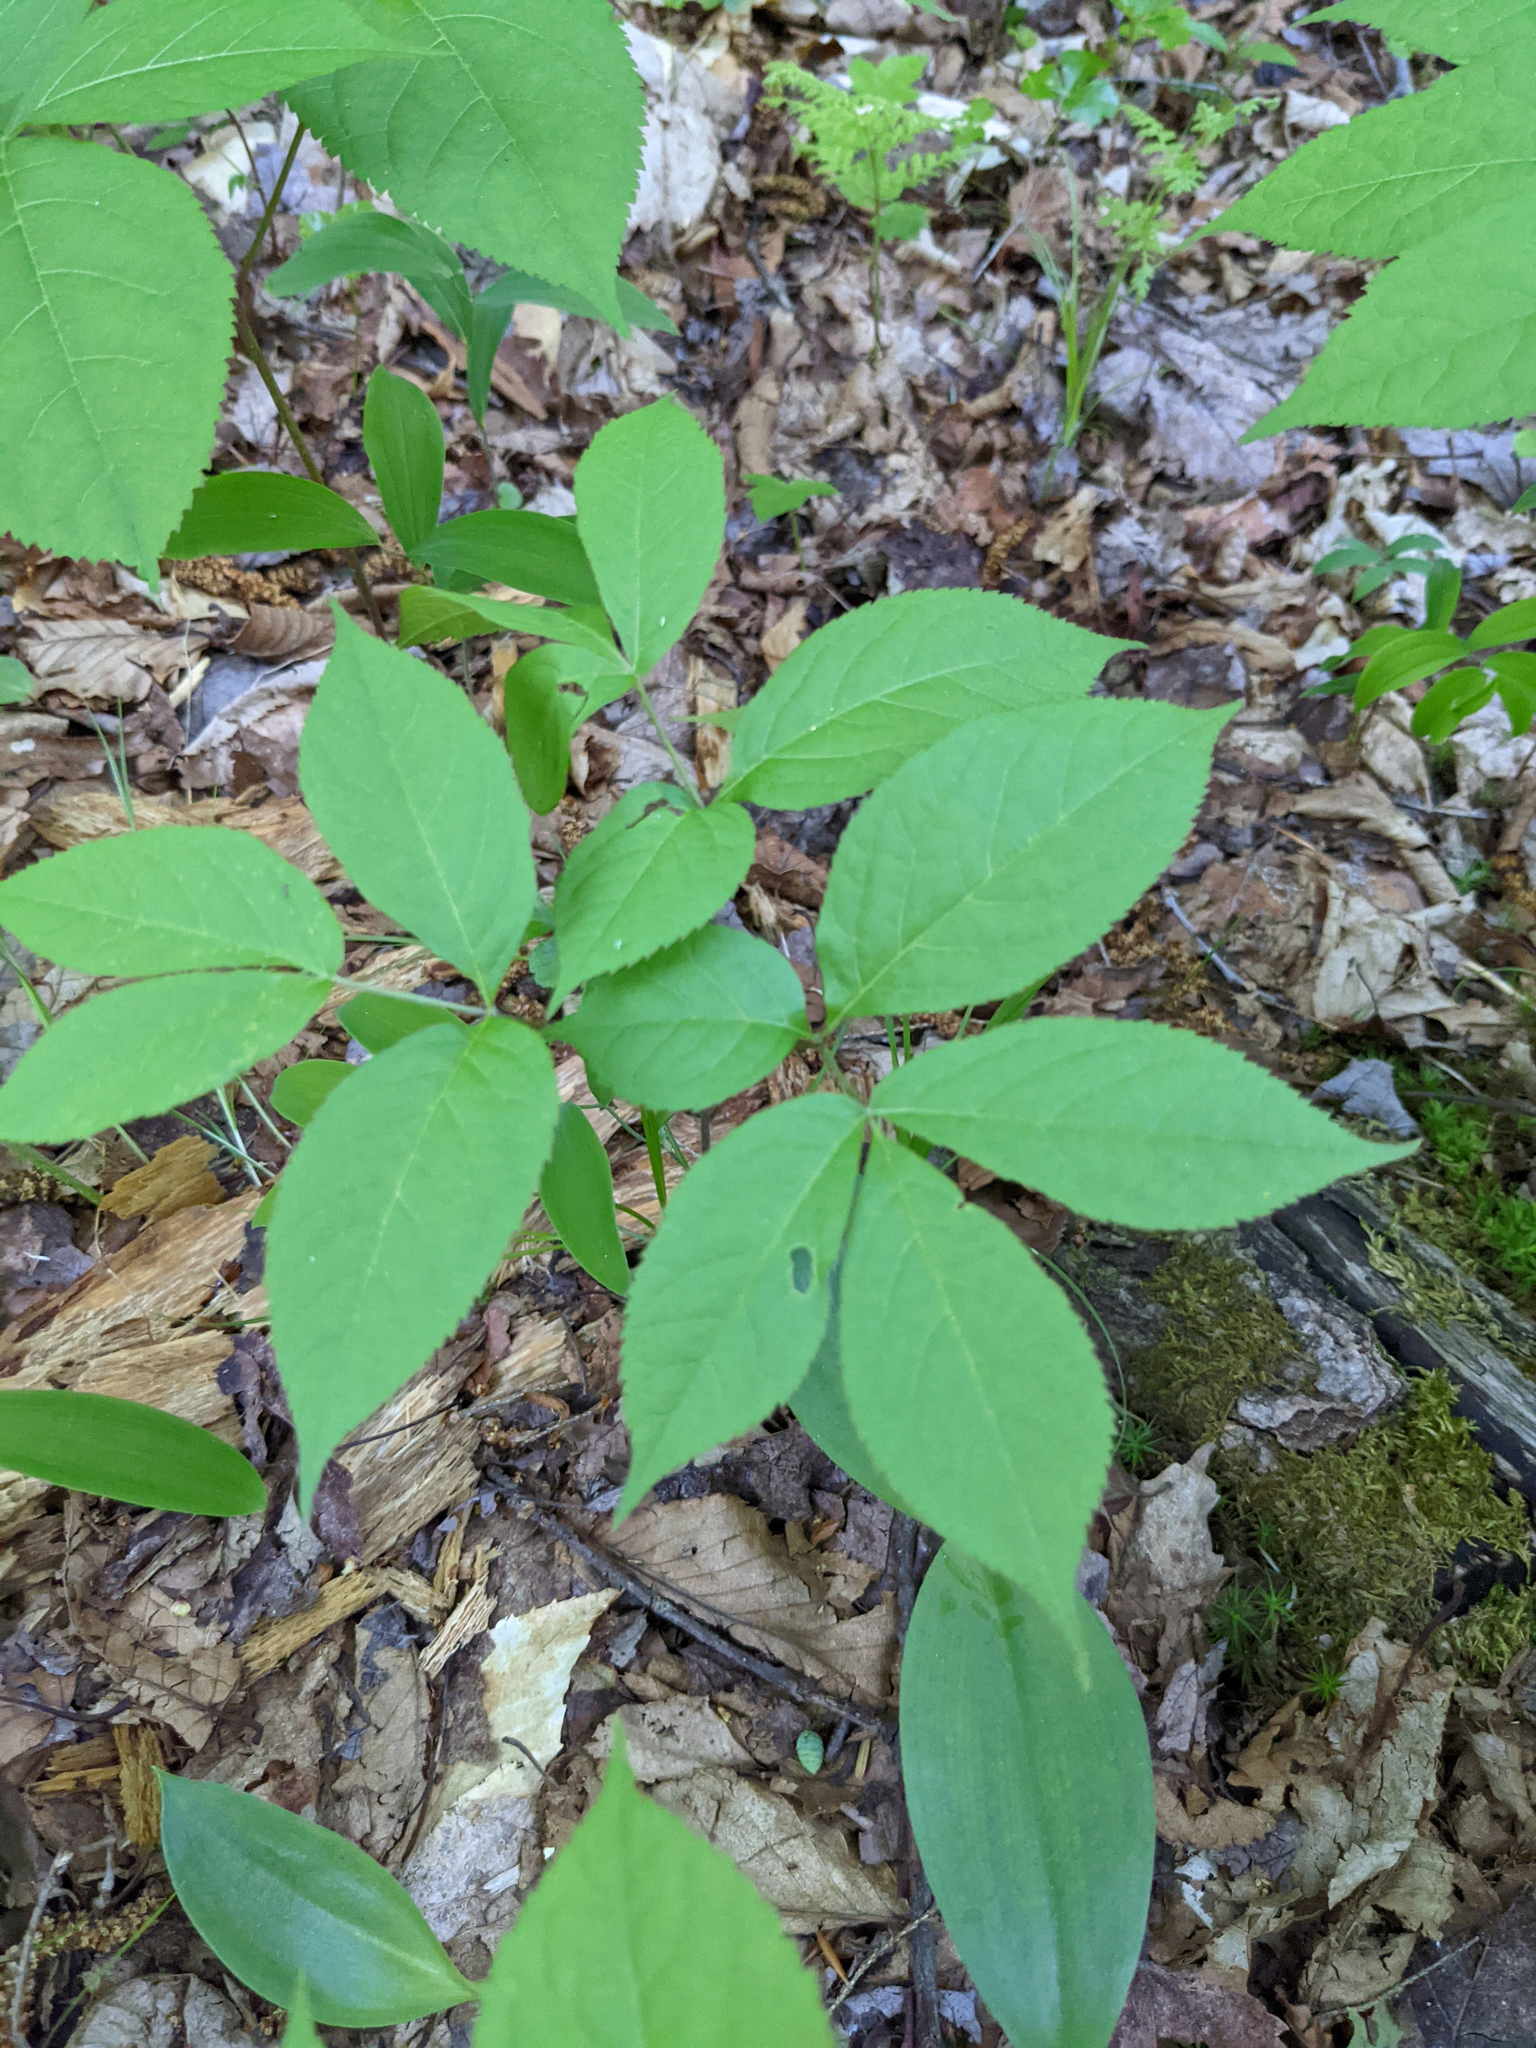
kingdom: Plantae
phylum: Tracheophyta
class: Magnoliopsida
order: Apiales
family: Araliaceae
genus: Aralia
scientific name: Aralia nudicaulis
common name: Wild sarsaparilla
